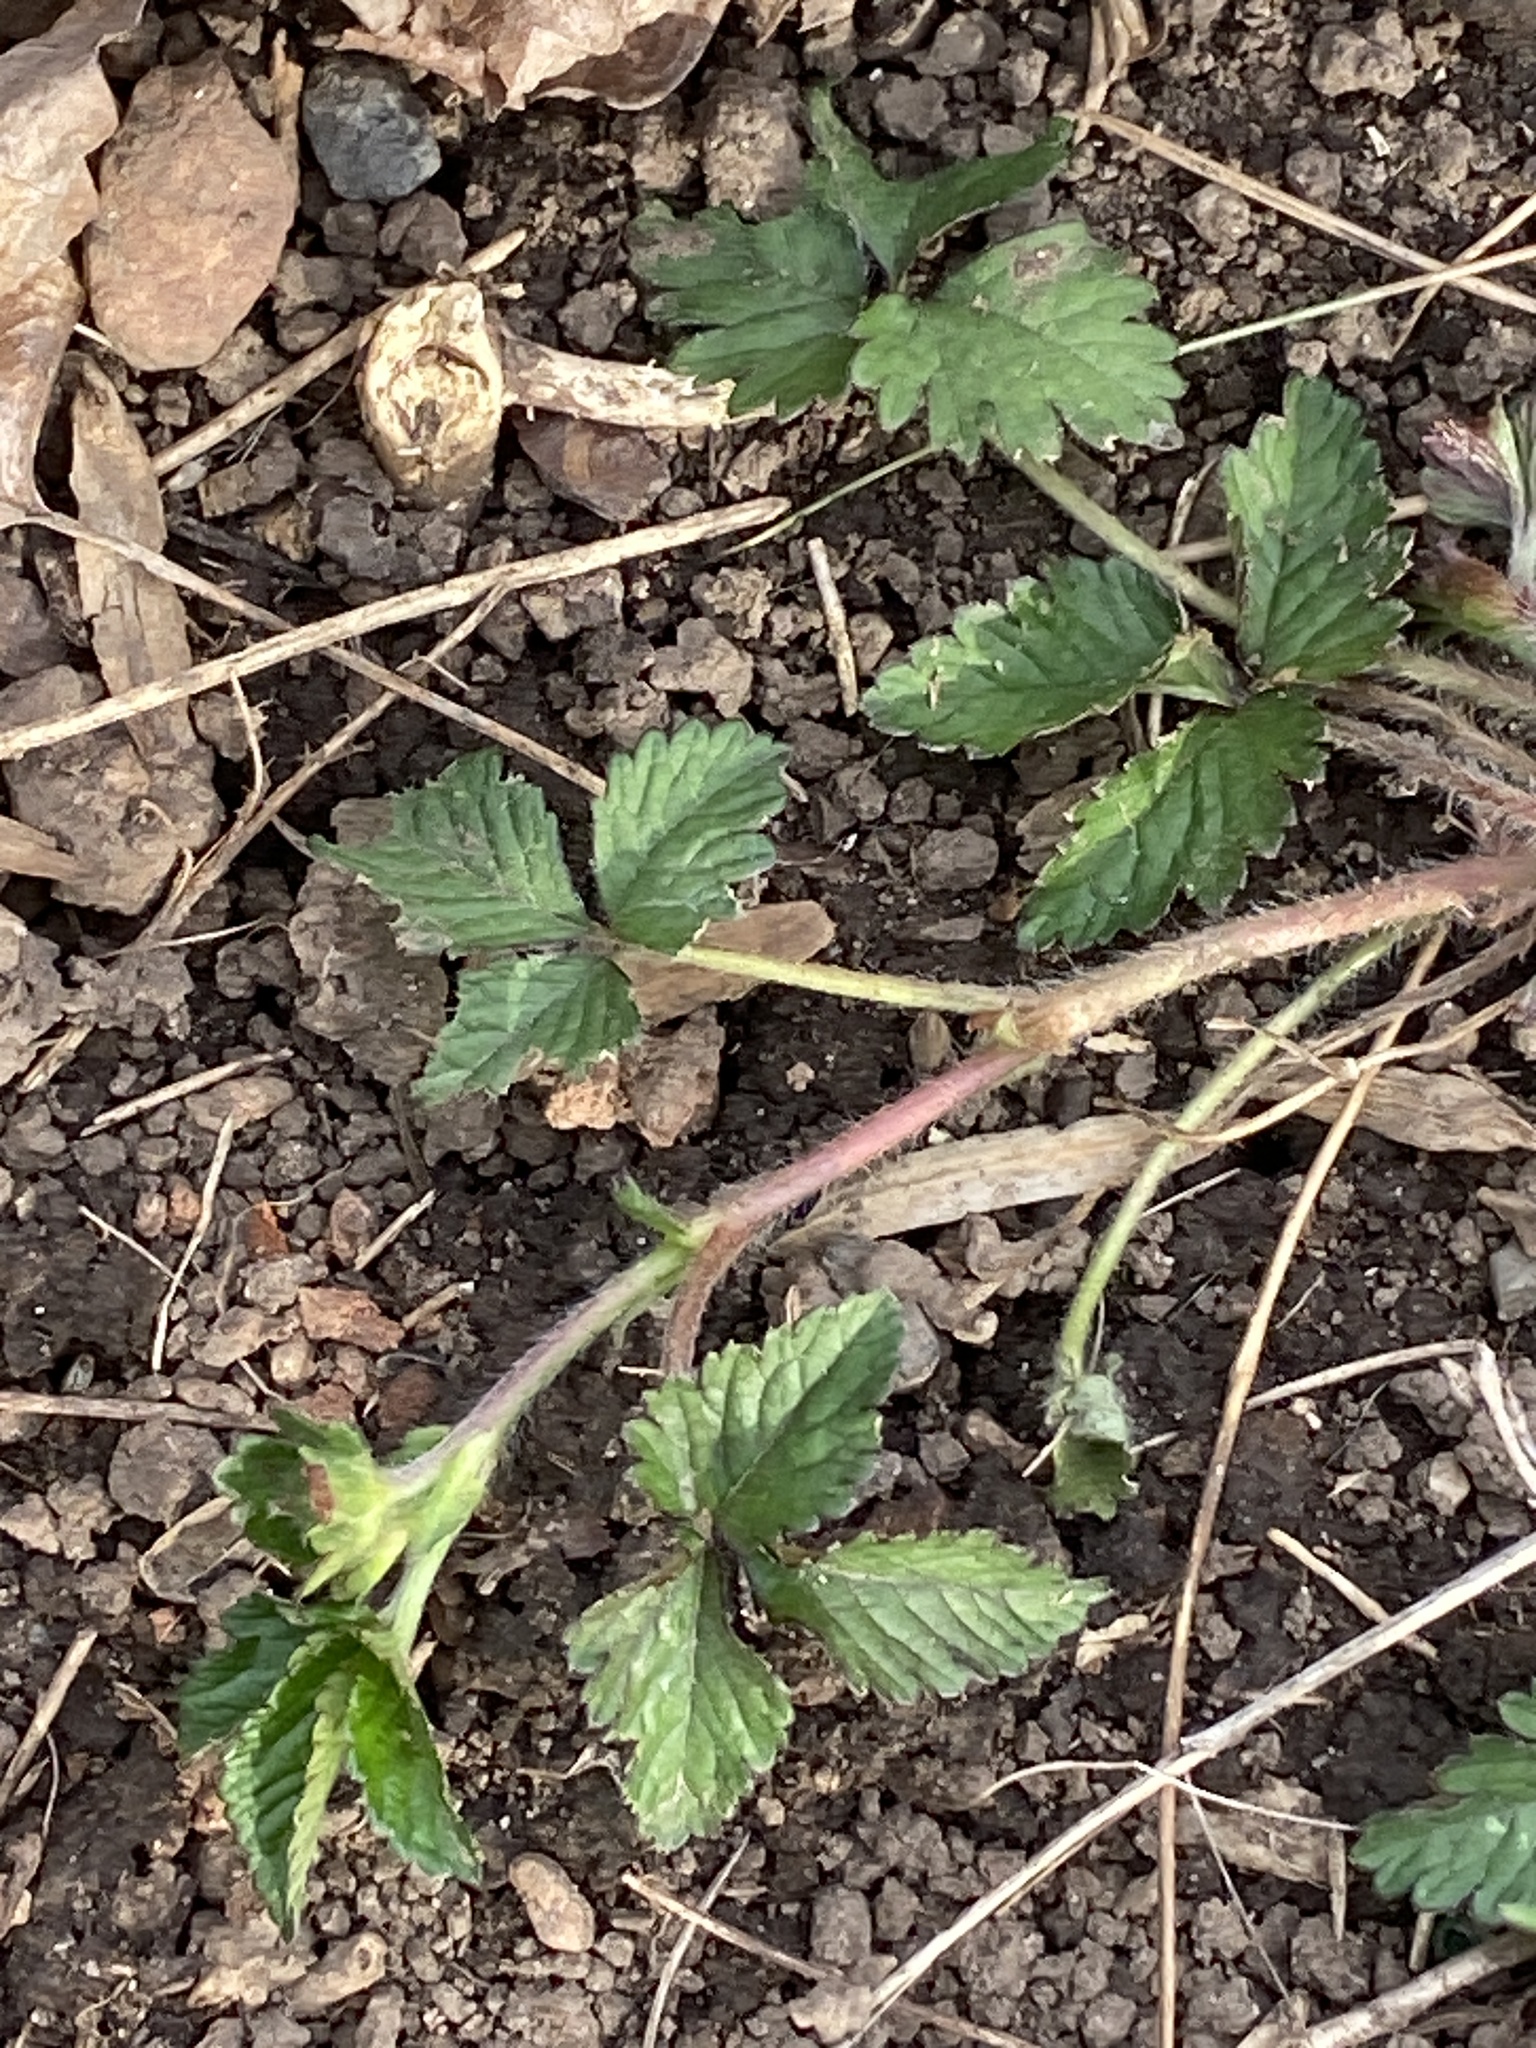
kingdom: Plantae
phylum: Tracheophyta
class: Magnoliopsida
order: Rosales
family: Rosaceae
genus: Potentilla
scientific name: Potentilla indica
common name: Yellow-flowered strawberry
